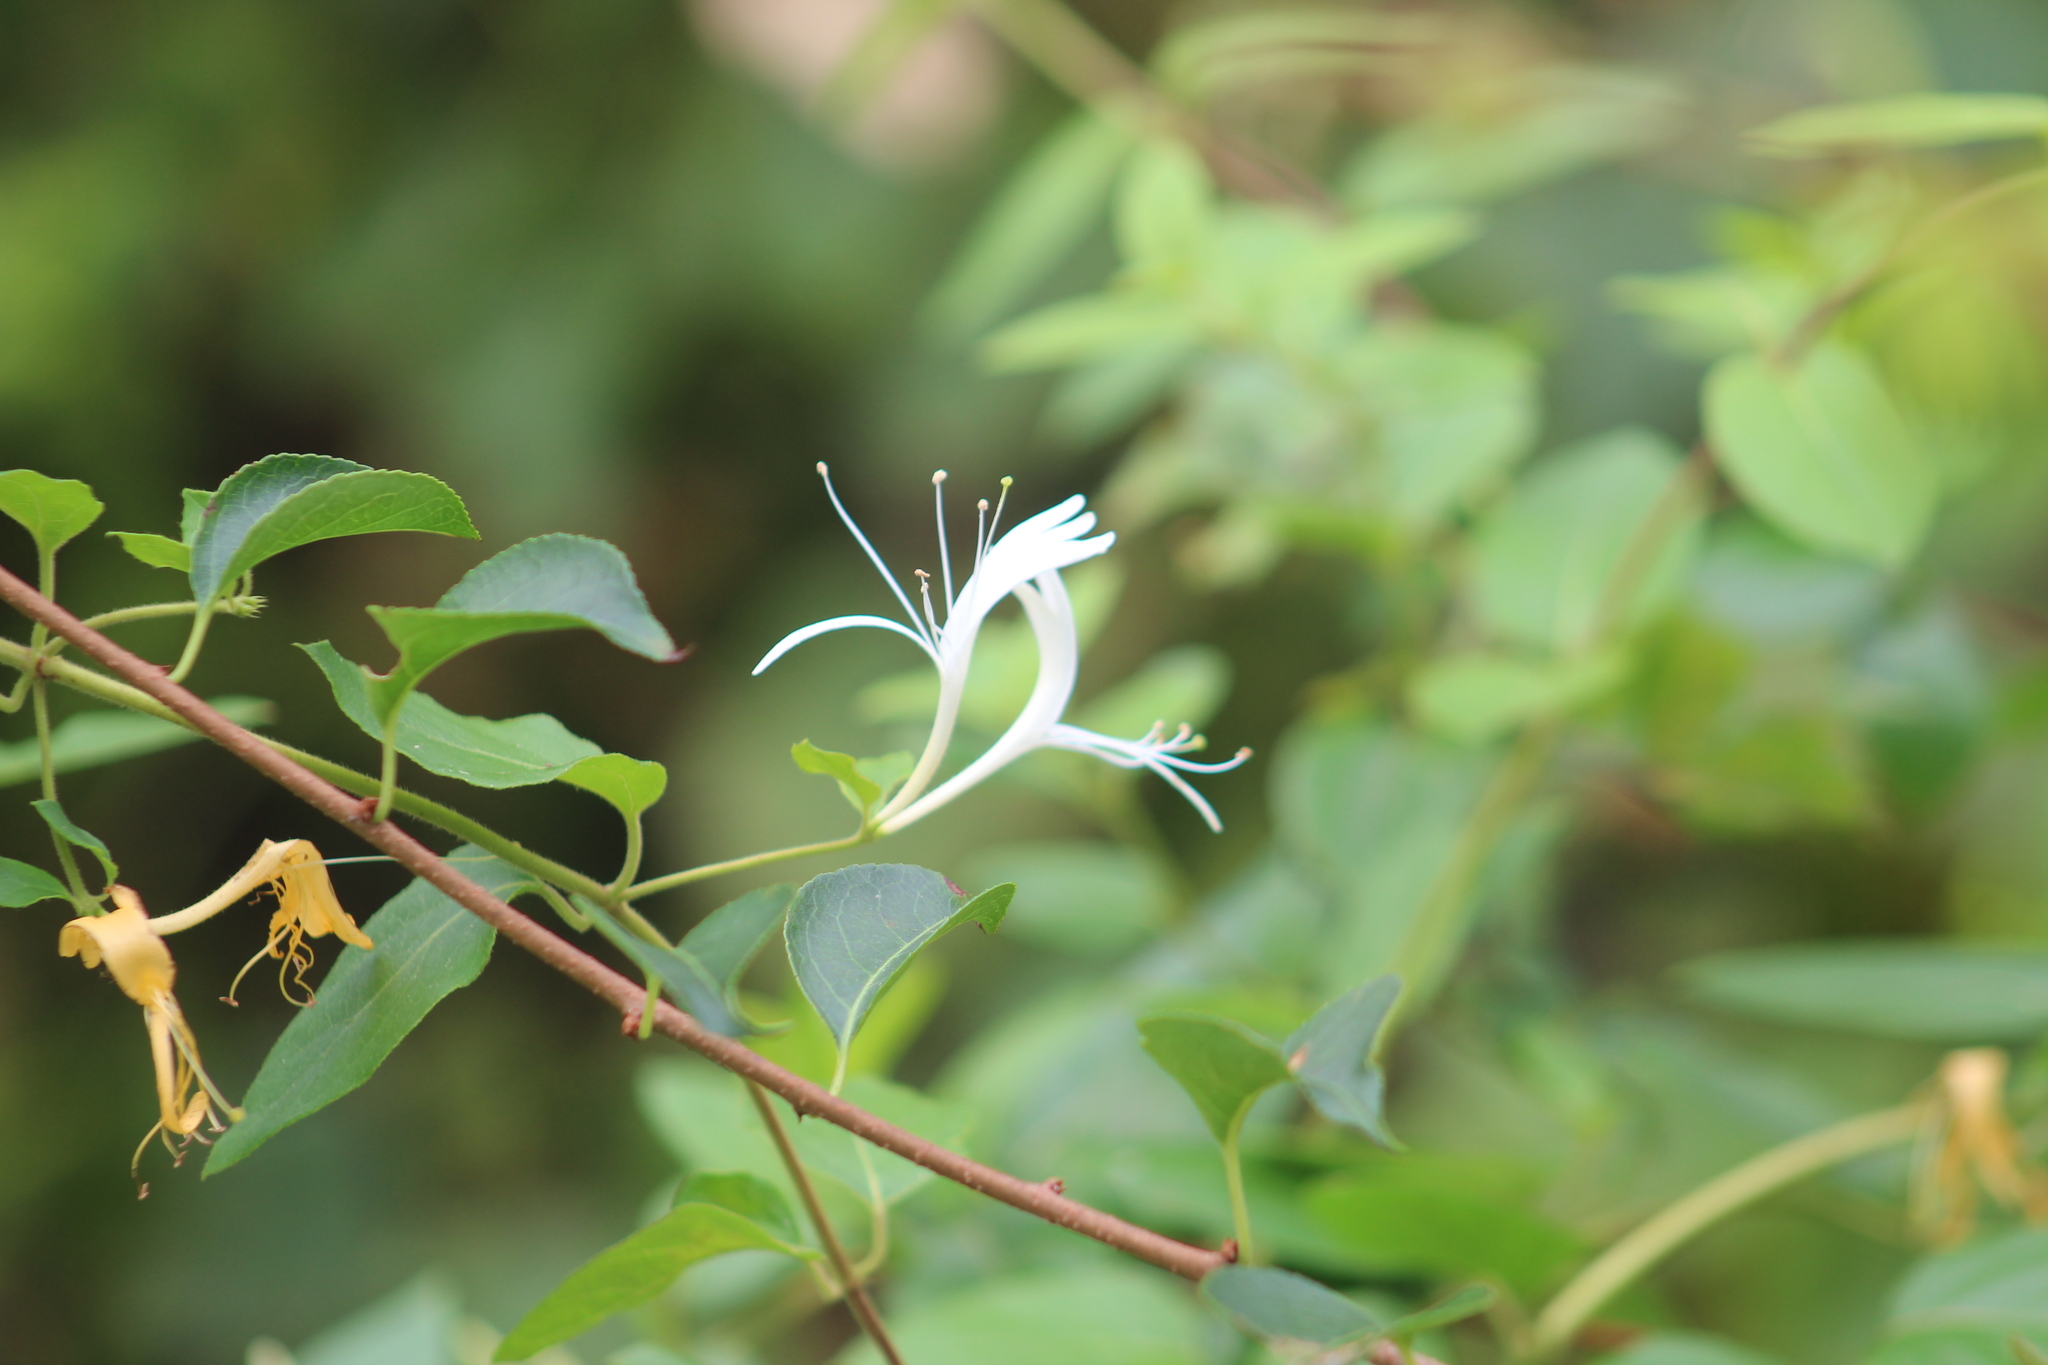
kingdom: Plantae
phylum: Tracheophyta
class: Magnoliopsida
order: Dipsacales
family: Caprifoliaceae
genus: Lonicera
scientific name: Lonicera japonica
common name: Japanese honeysuckle
